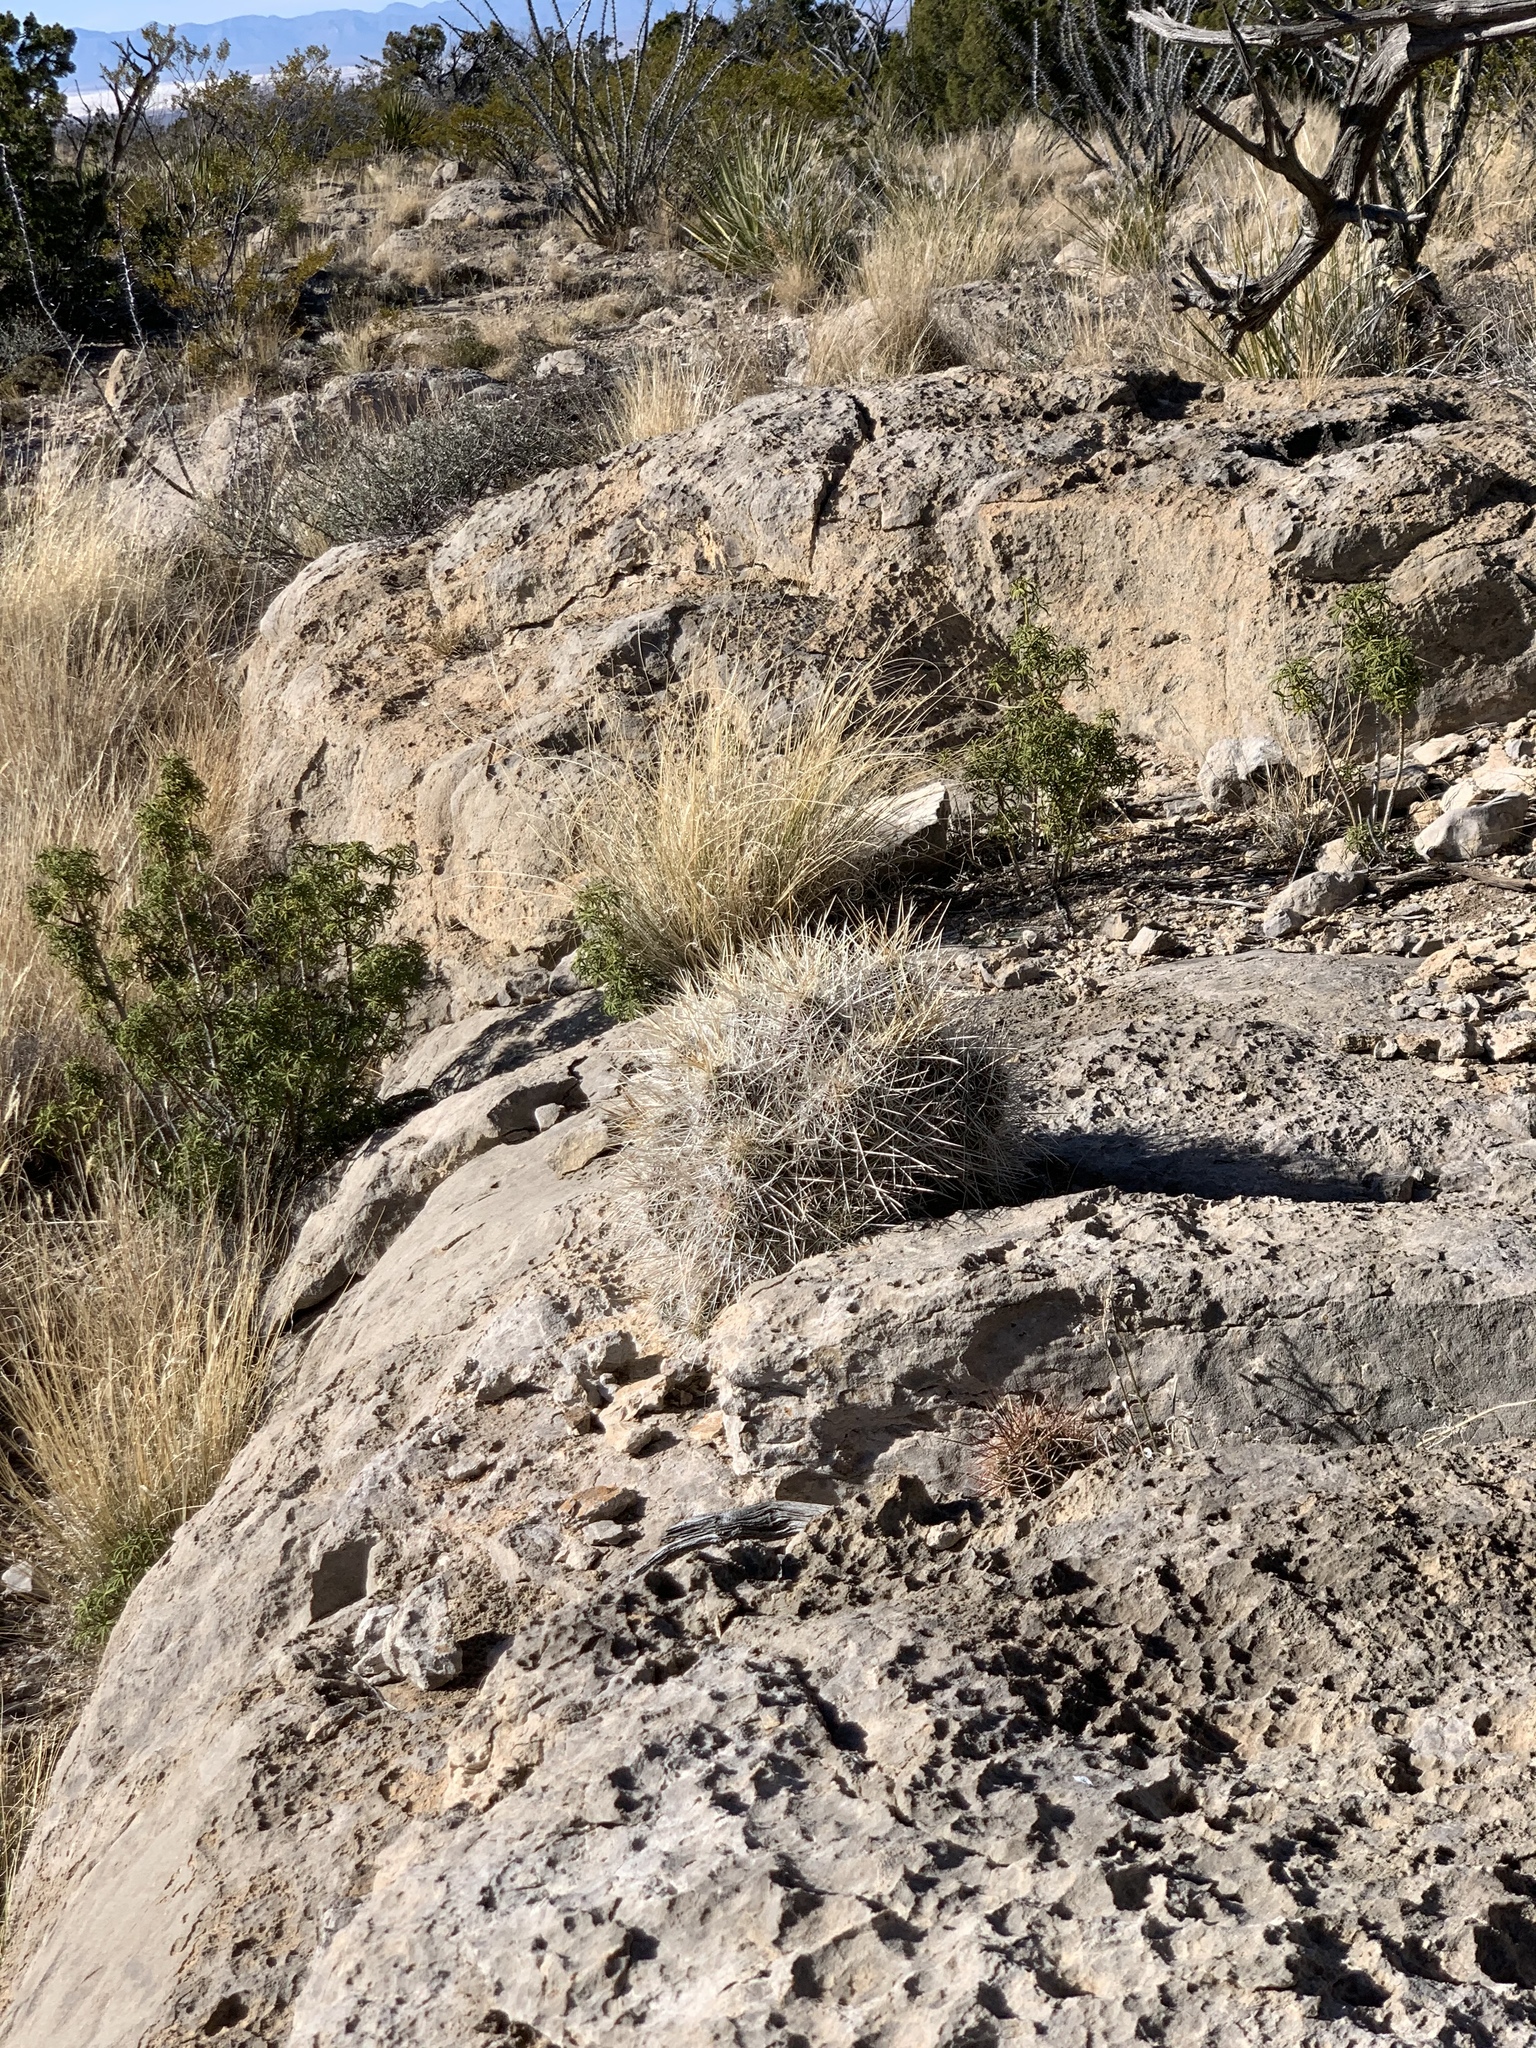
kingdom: Plantae
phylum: Tracheophyta
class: Magnoliopsida
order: Caryophyllales
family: Cactaceae
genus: Echinocereus
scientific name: Echinocereus stramineus
